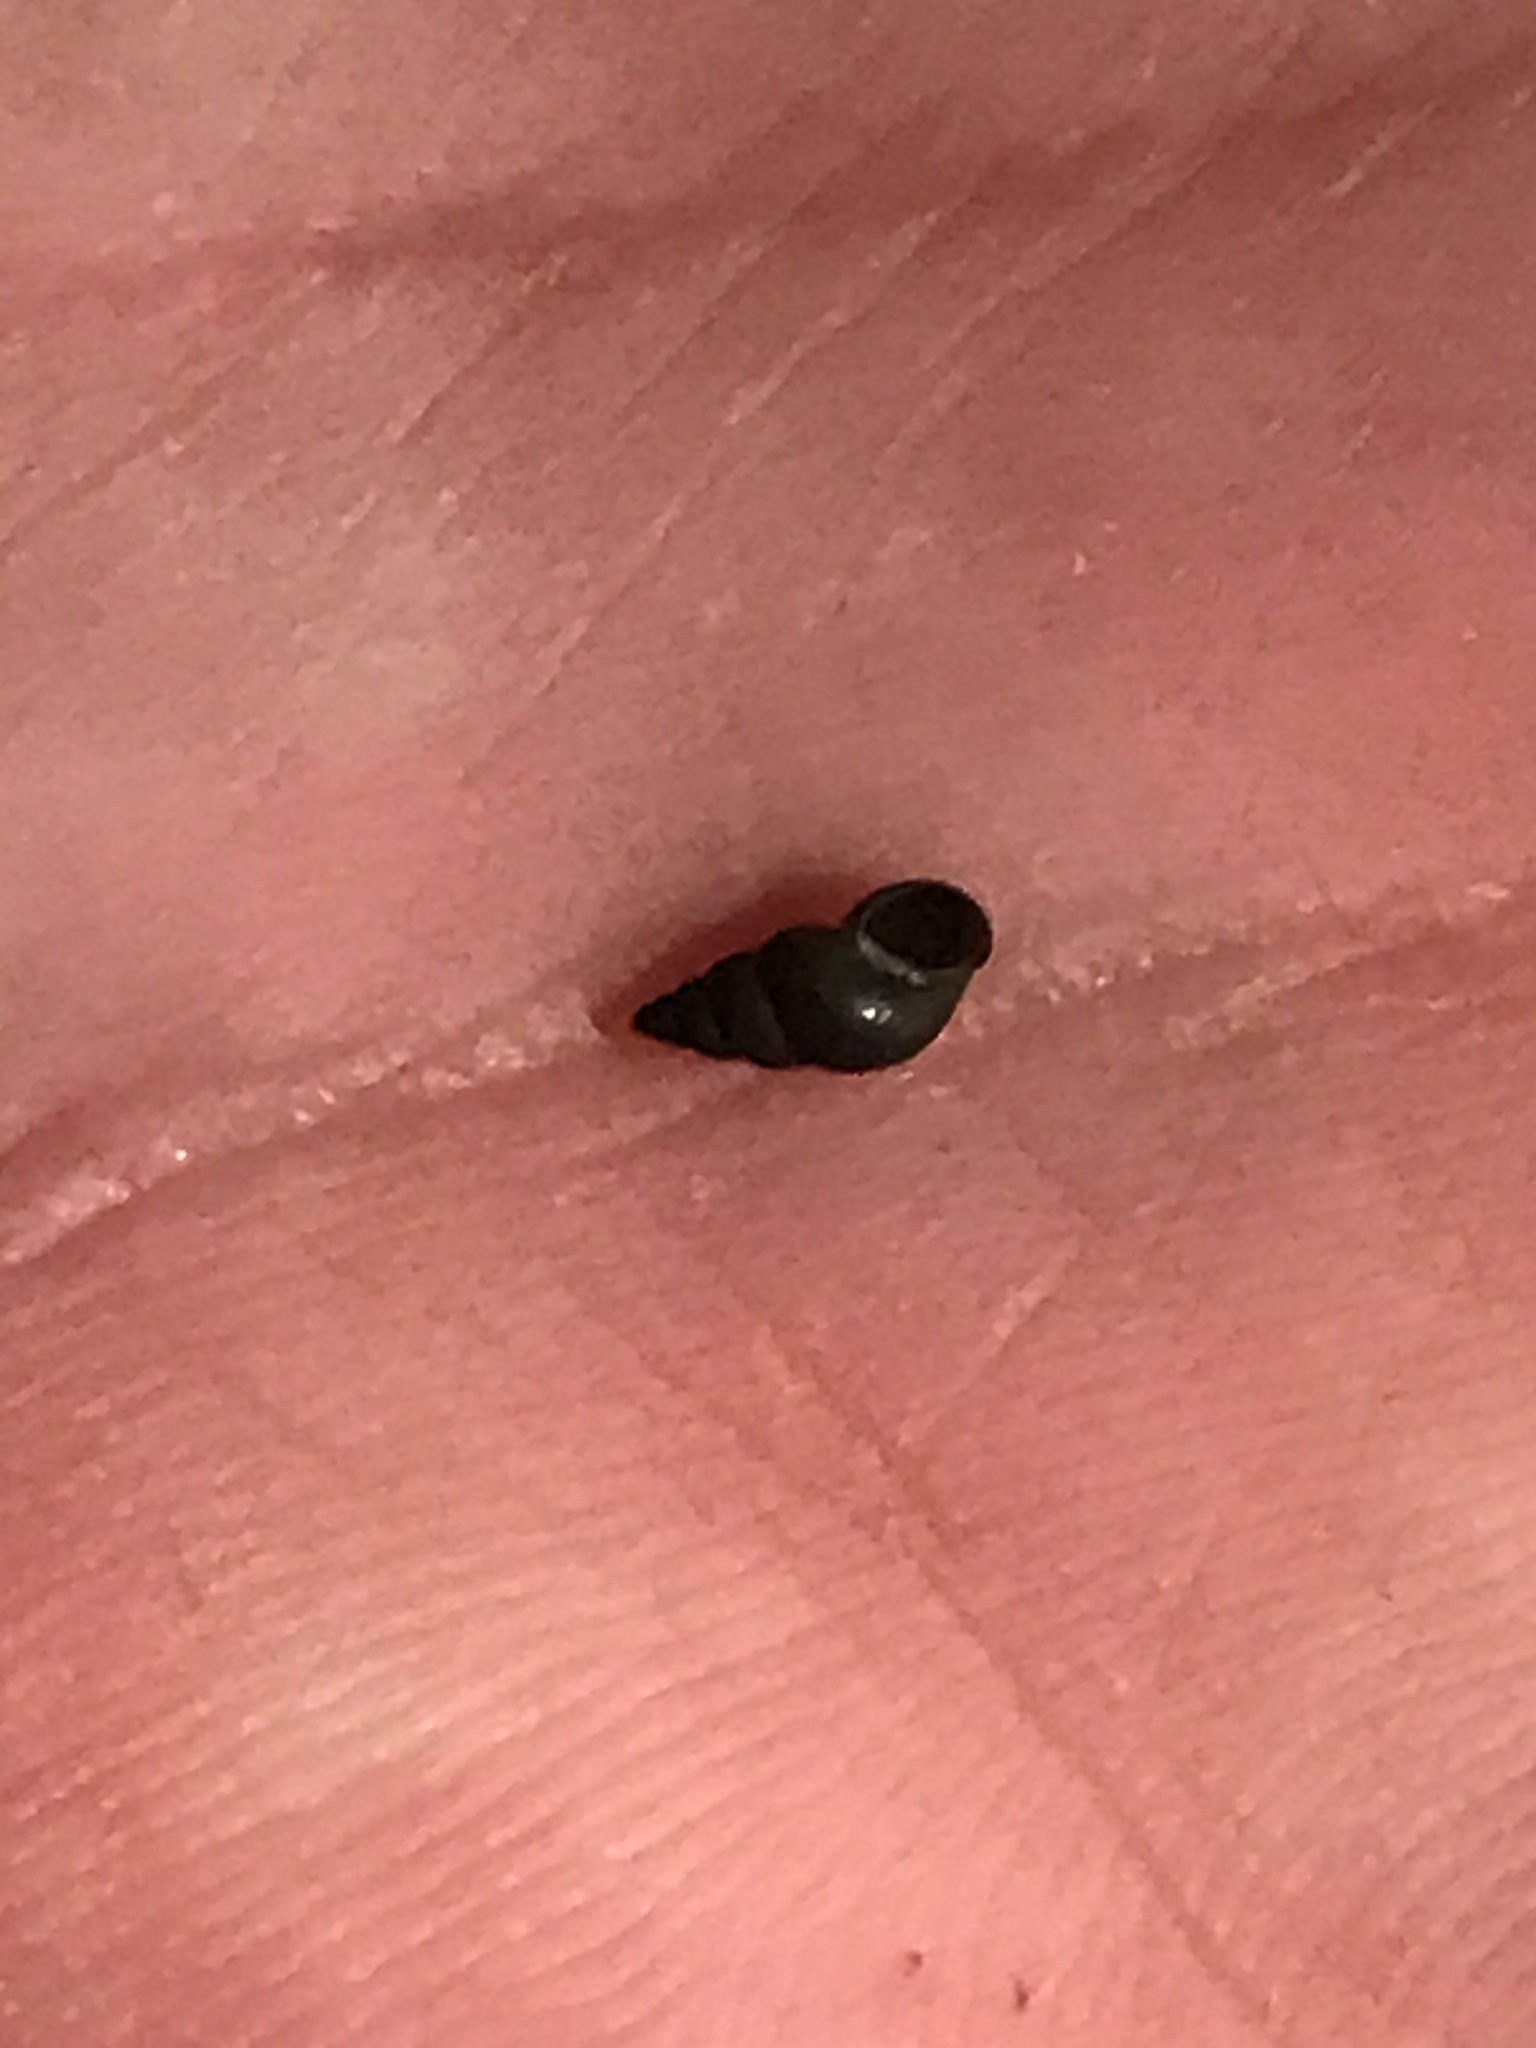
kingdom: Animalia
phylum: Mollusca
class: Gastropoda
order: Littorinimorpha
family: Tateidae
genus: Potamopyrgus
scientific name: Potamopyrgus antipodarum
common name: Jenkins' spire snail
